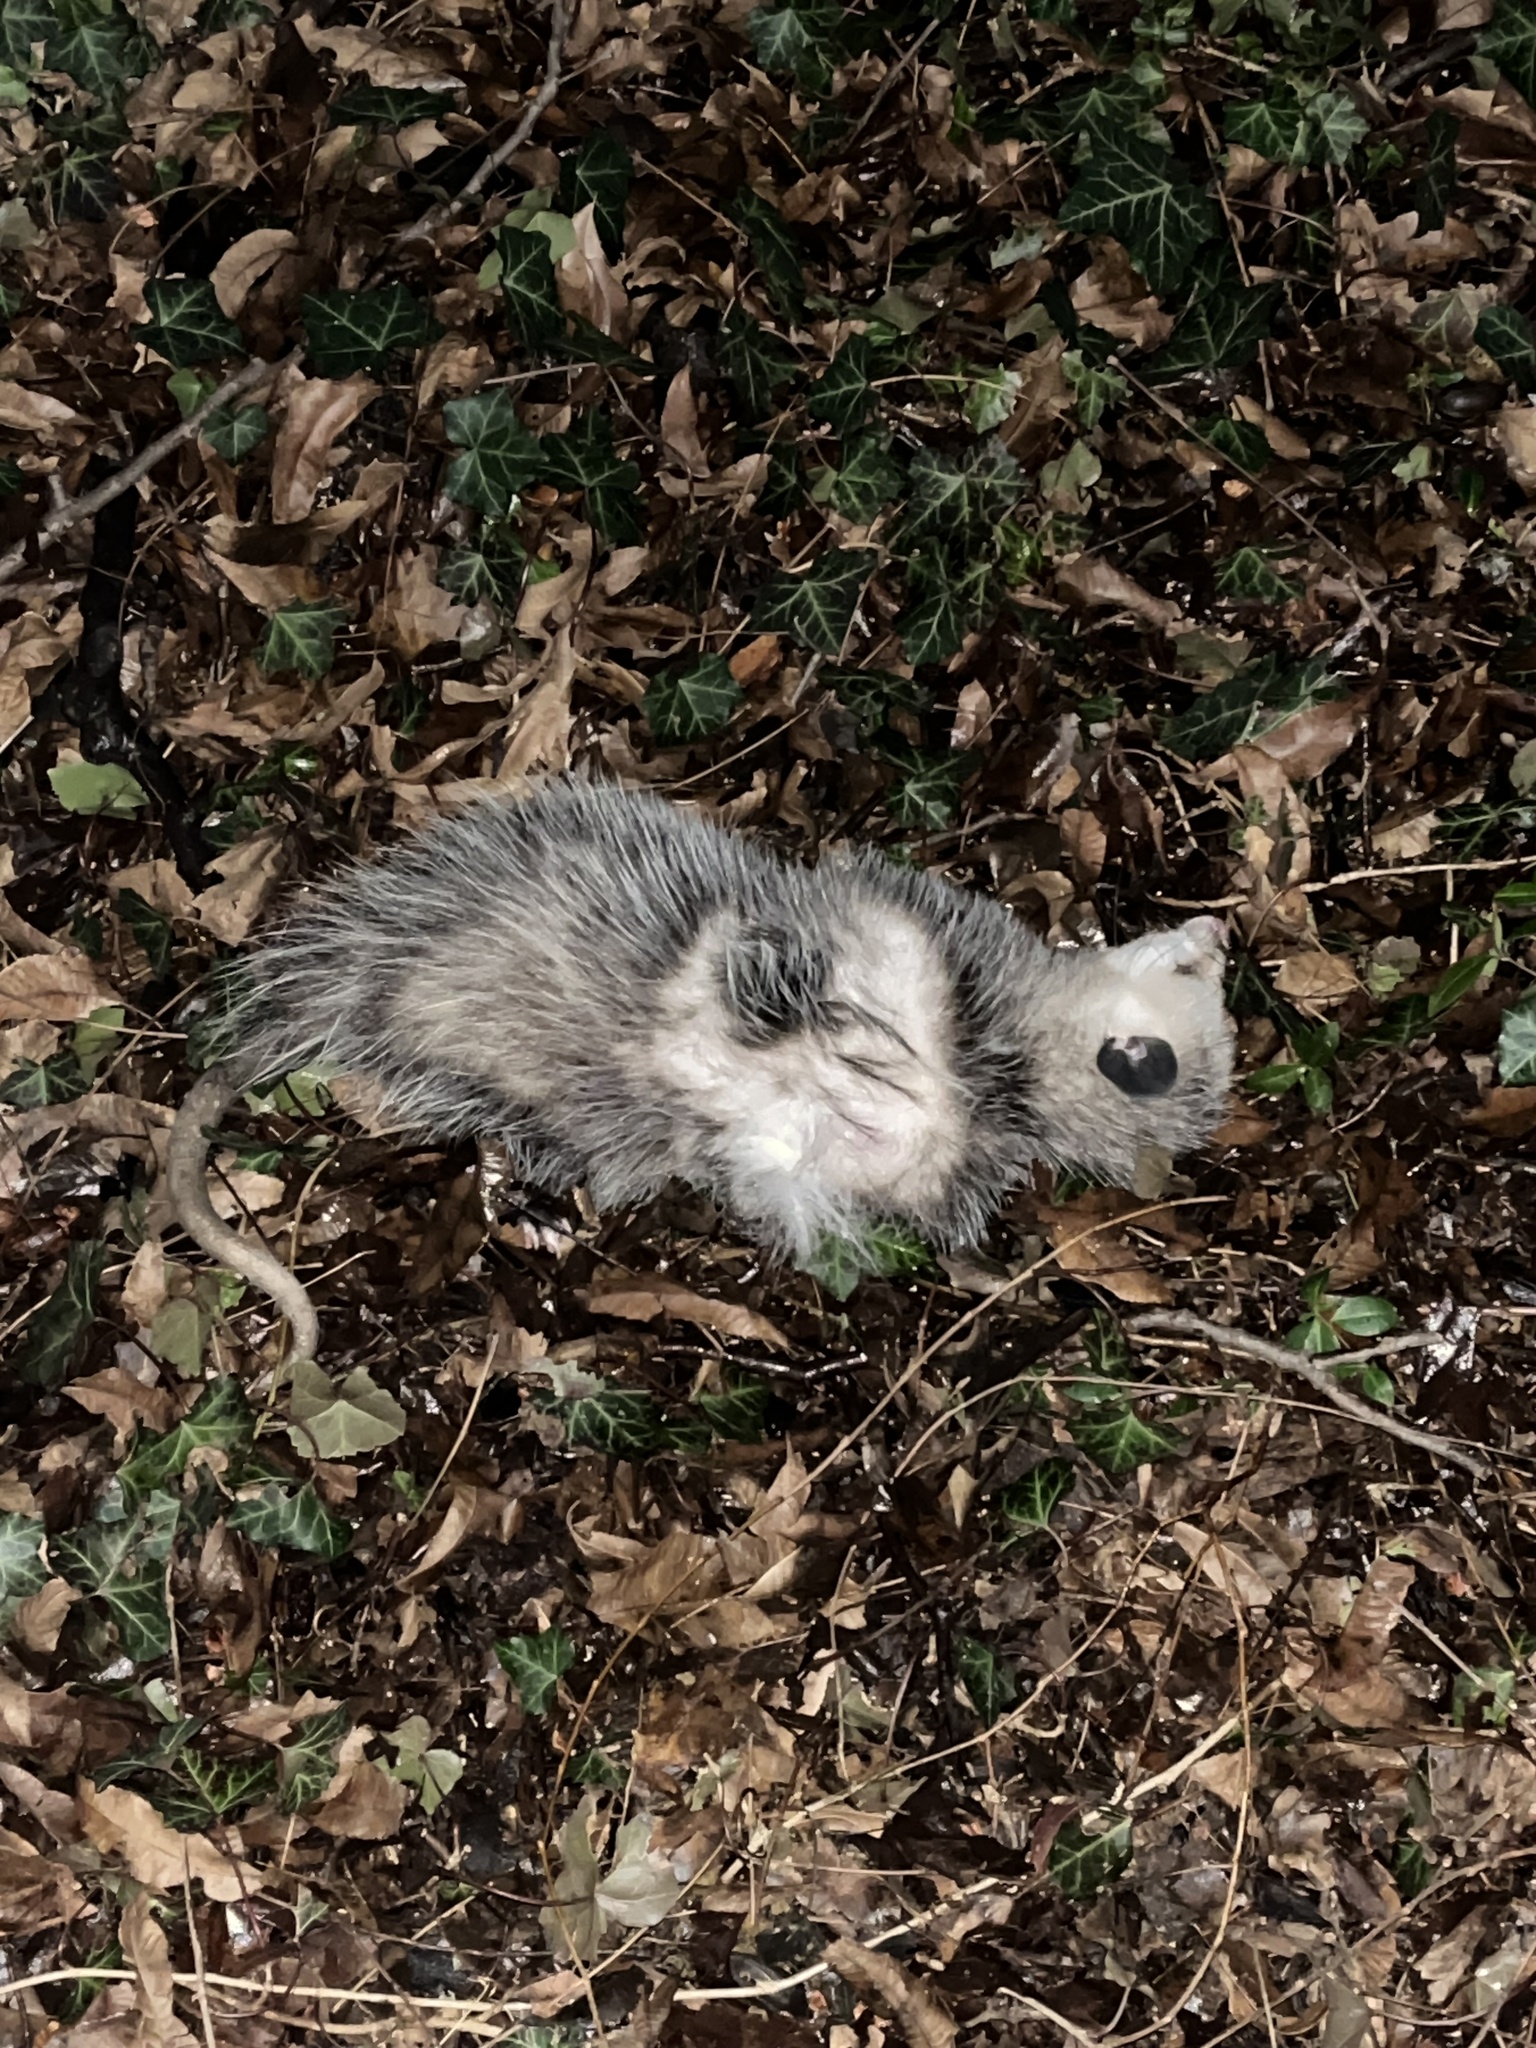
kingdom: Animalia
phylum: Chordata
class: Mammalia
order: Didelphimorphia
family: Didelphidae
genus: Didelphis
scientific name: Didelphis virginiana
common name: Virginia opossum
